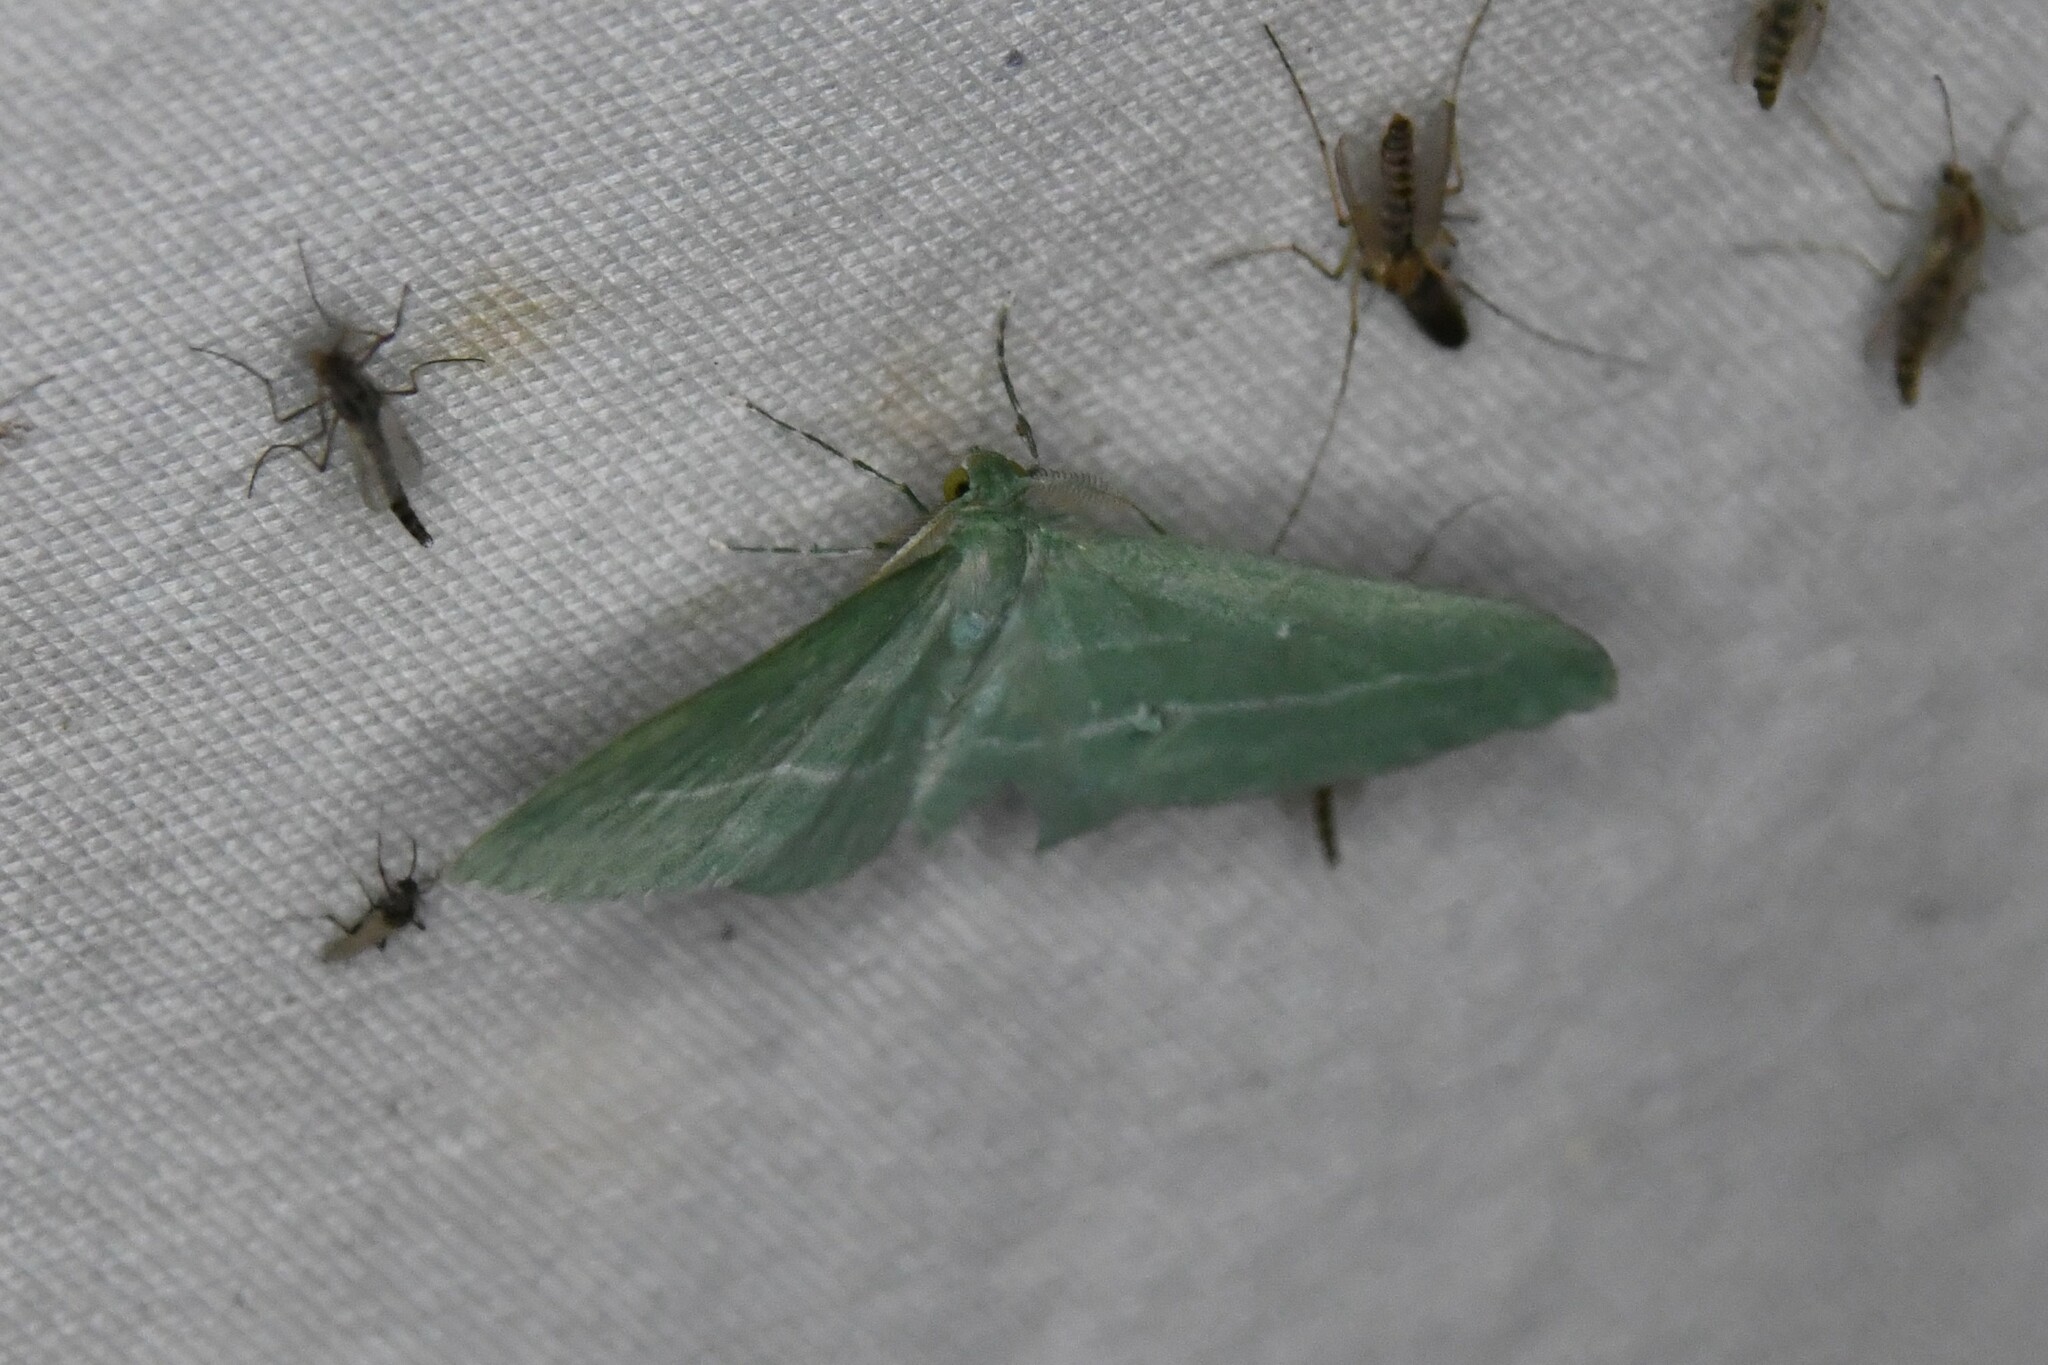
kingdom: Animalia
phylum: Arthropoda
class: Insecta
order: Lepidoptera
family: Geometridae
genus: Dyspteris
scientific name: Dyspteris abortivaria
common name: Bad-wing
